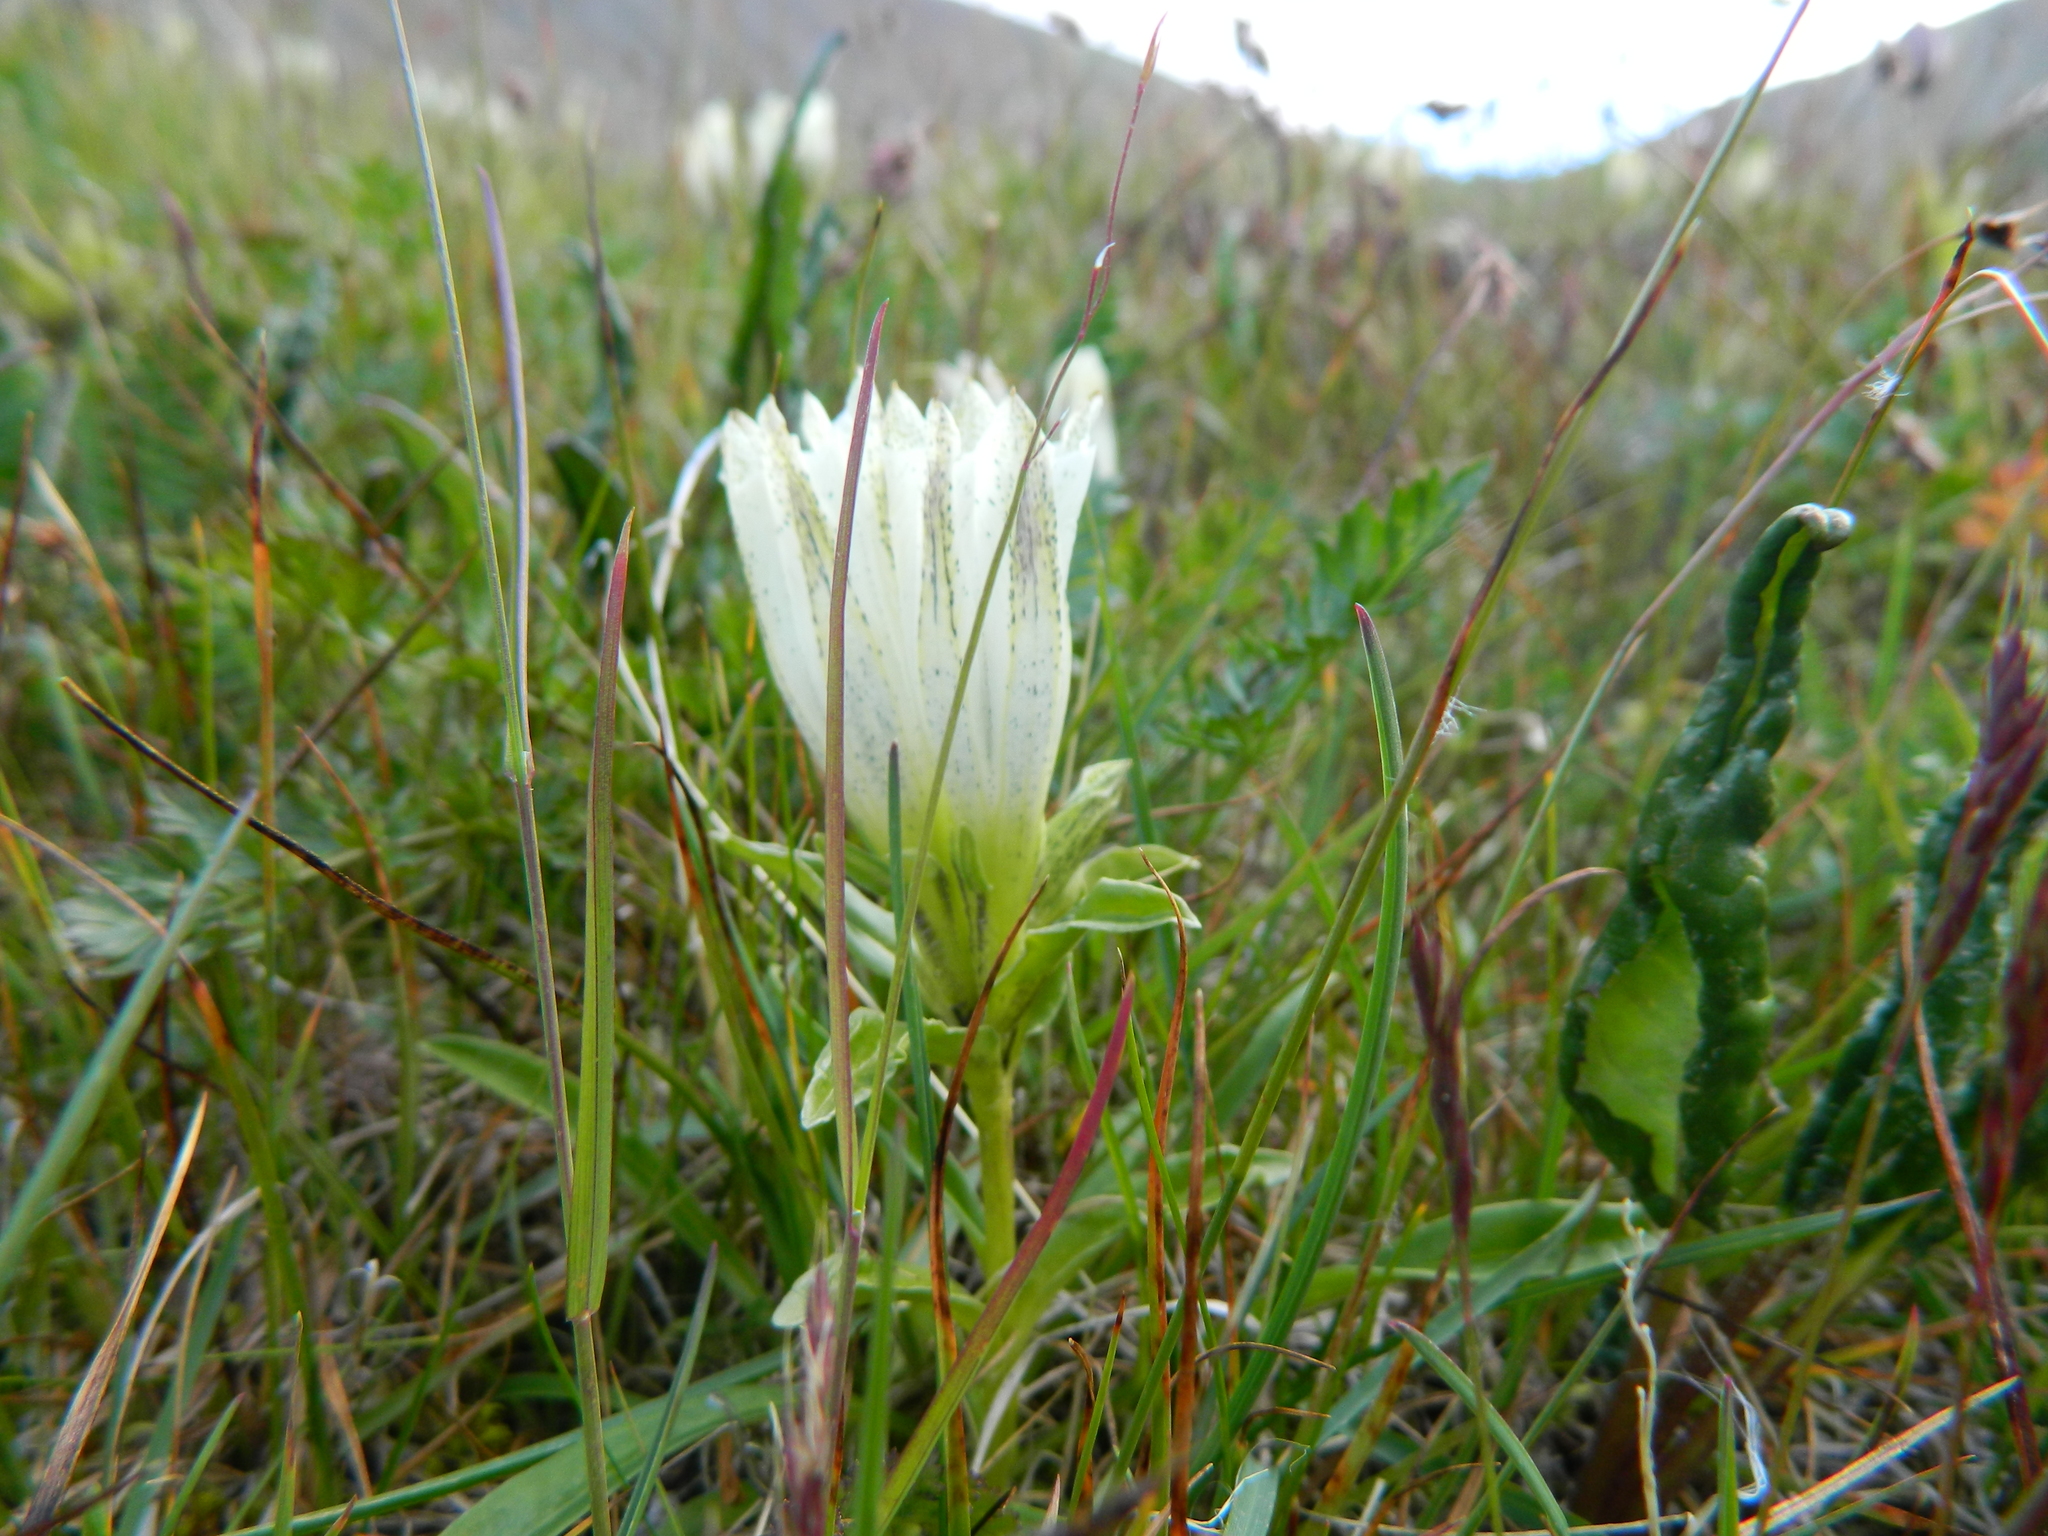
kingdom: Plantae
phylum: Tracheophyta
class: Magnoliopsida
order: Gentianales
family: Gentianaceae
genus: Gentiana
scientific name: Gentiana algida
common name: Arctic gentian
